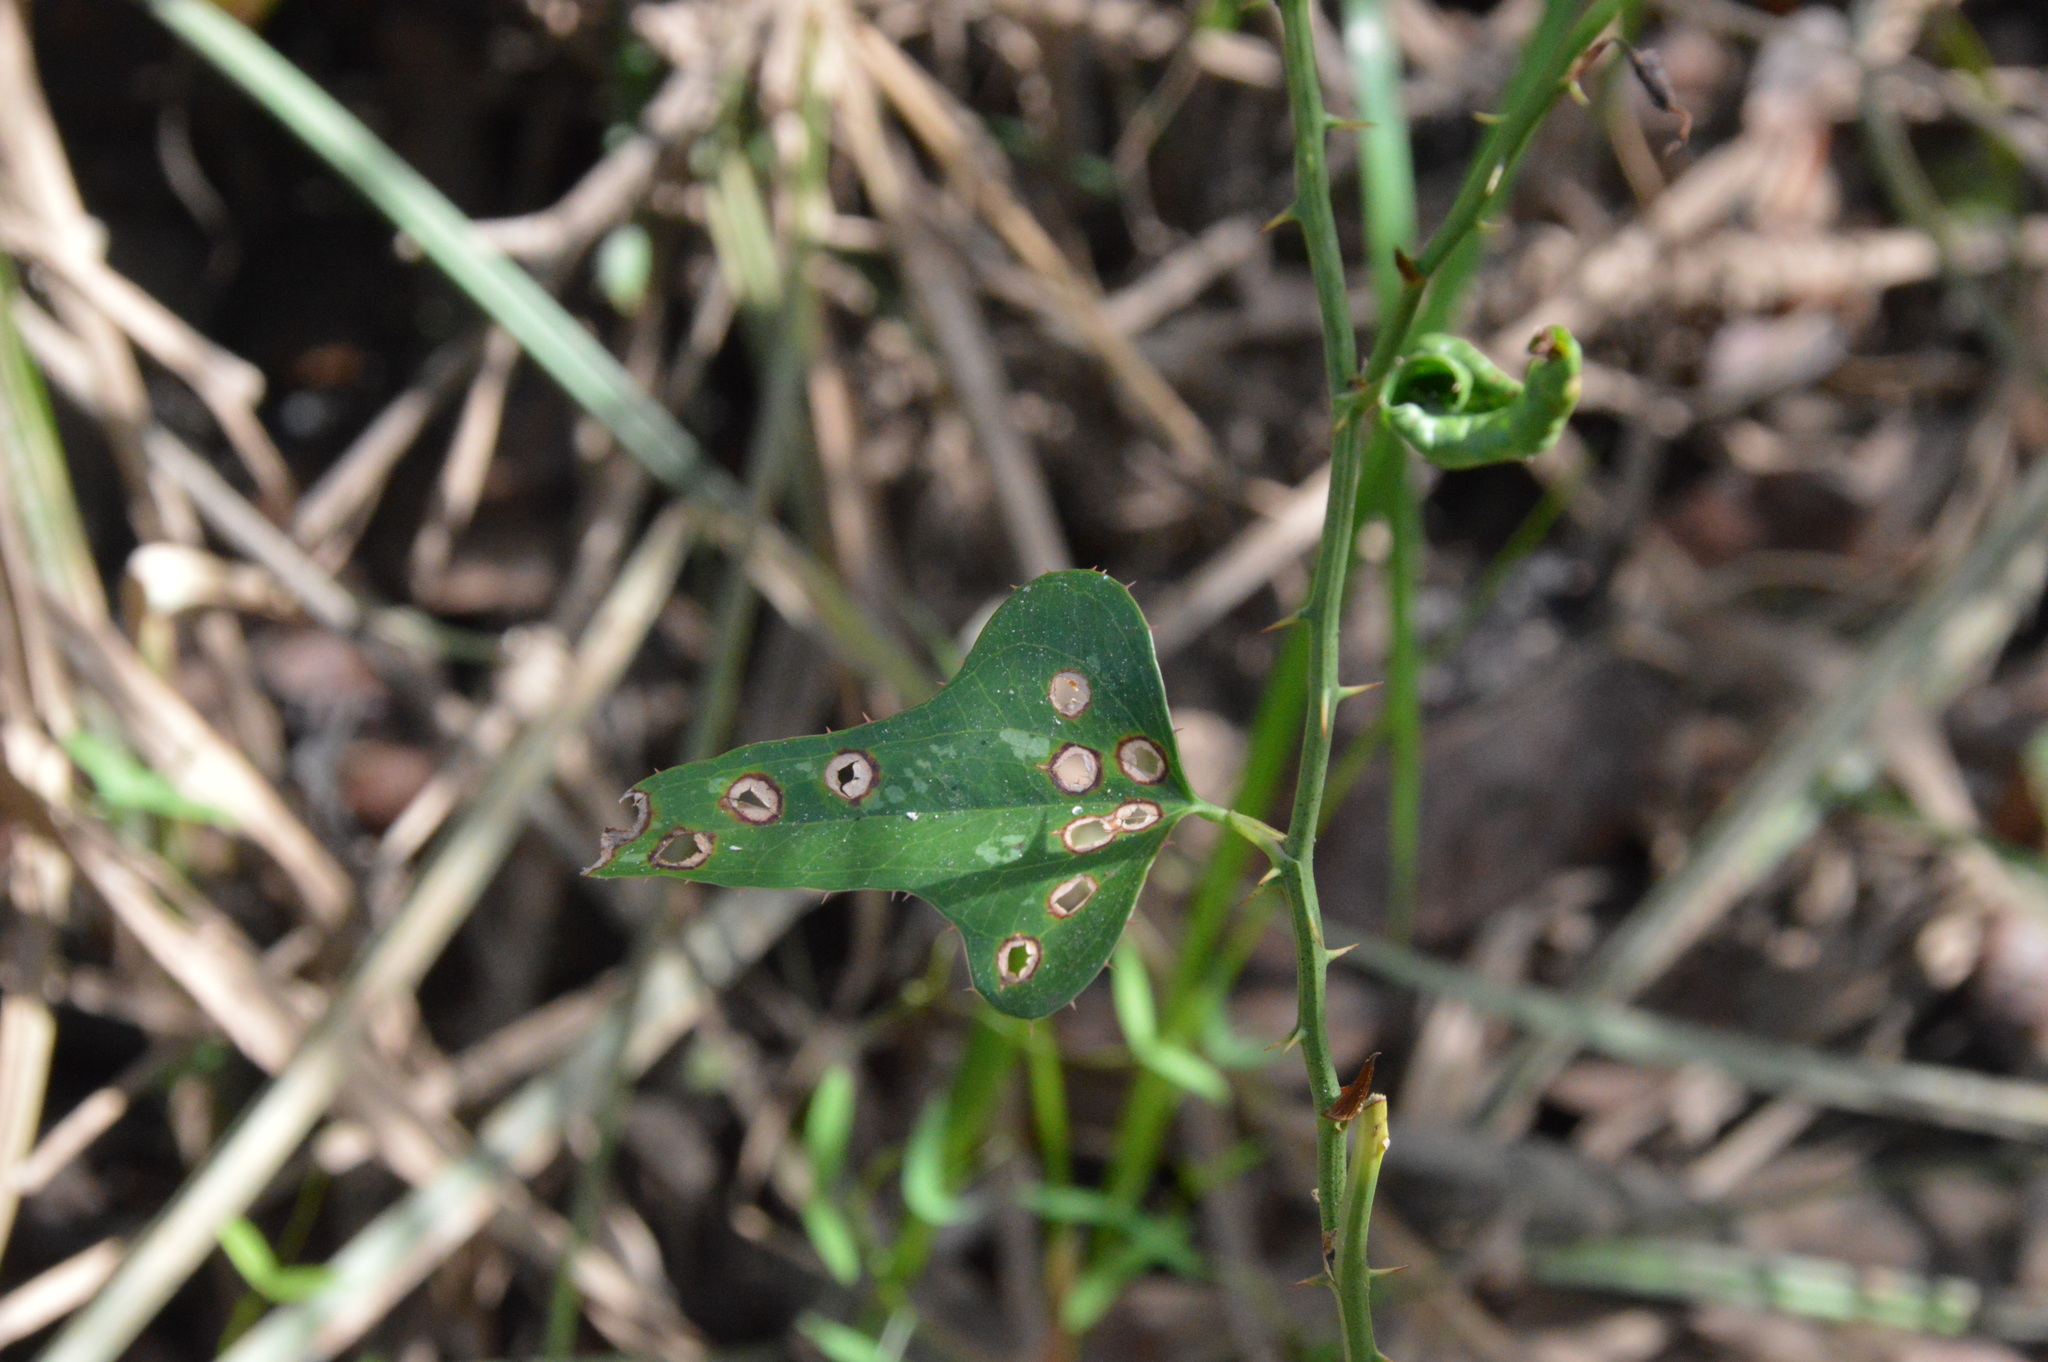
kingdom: Plantae
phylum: Tracheophyta
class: Liliopsida
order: Liliales
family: Smilacaceae
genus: Smilax
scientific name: Smilax bona-nox
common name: Catbrier
